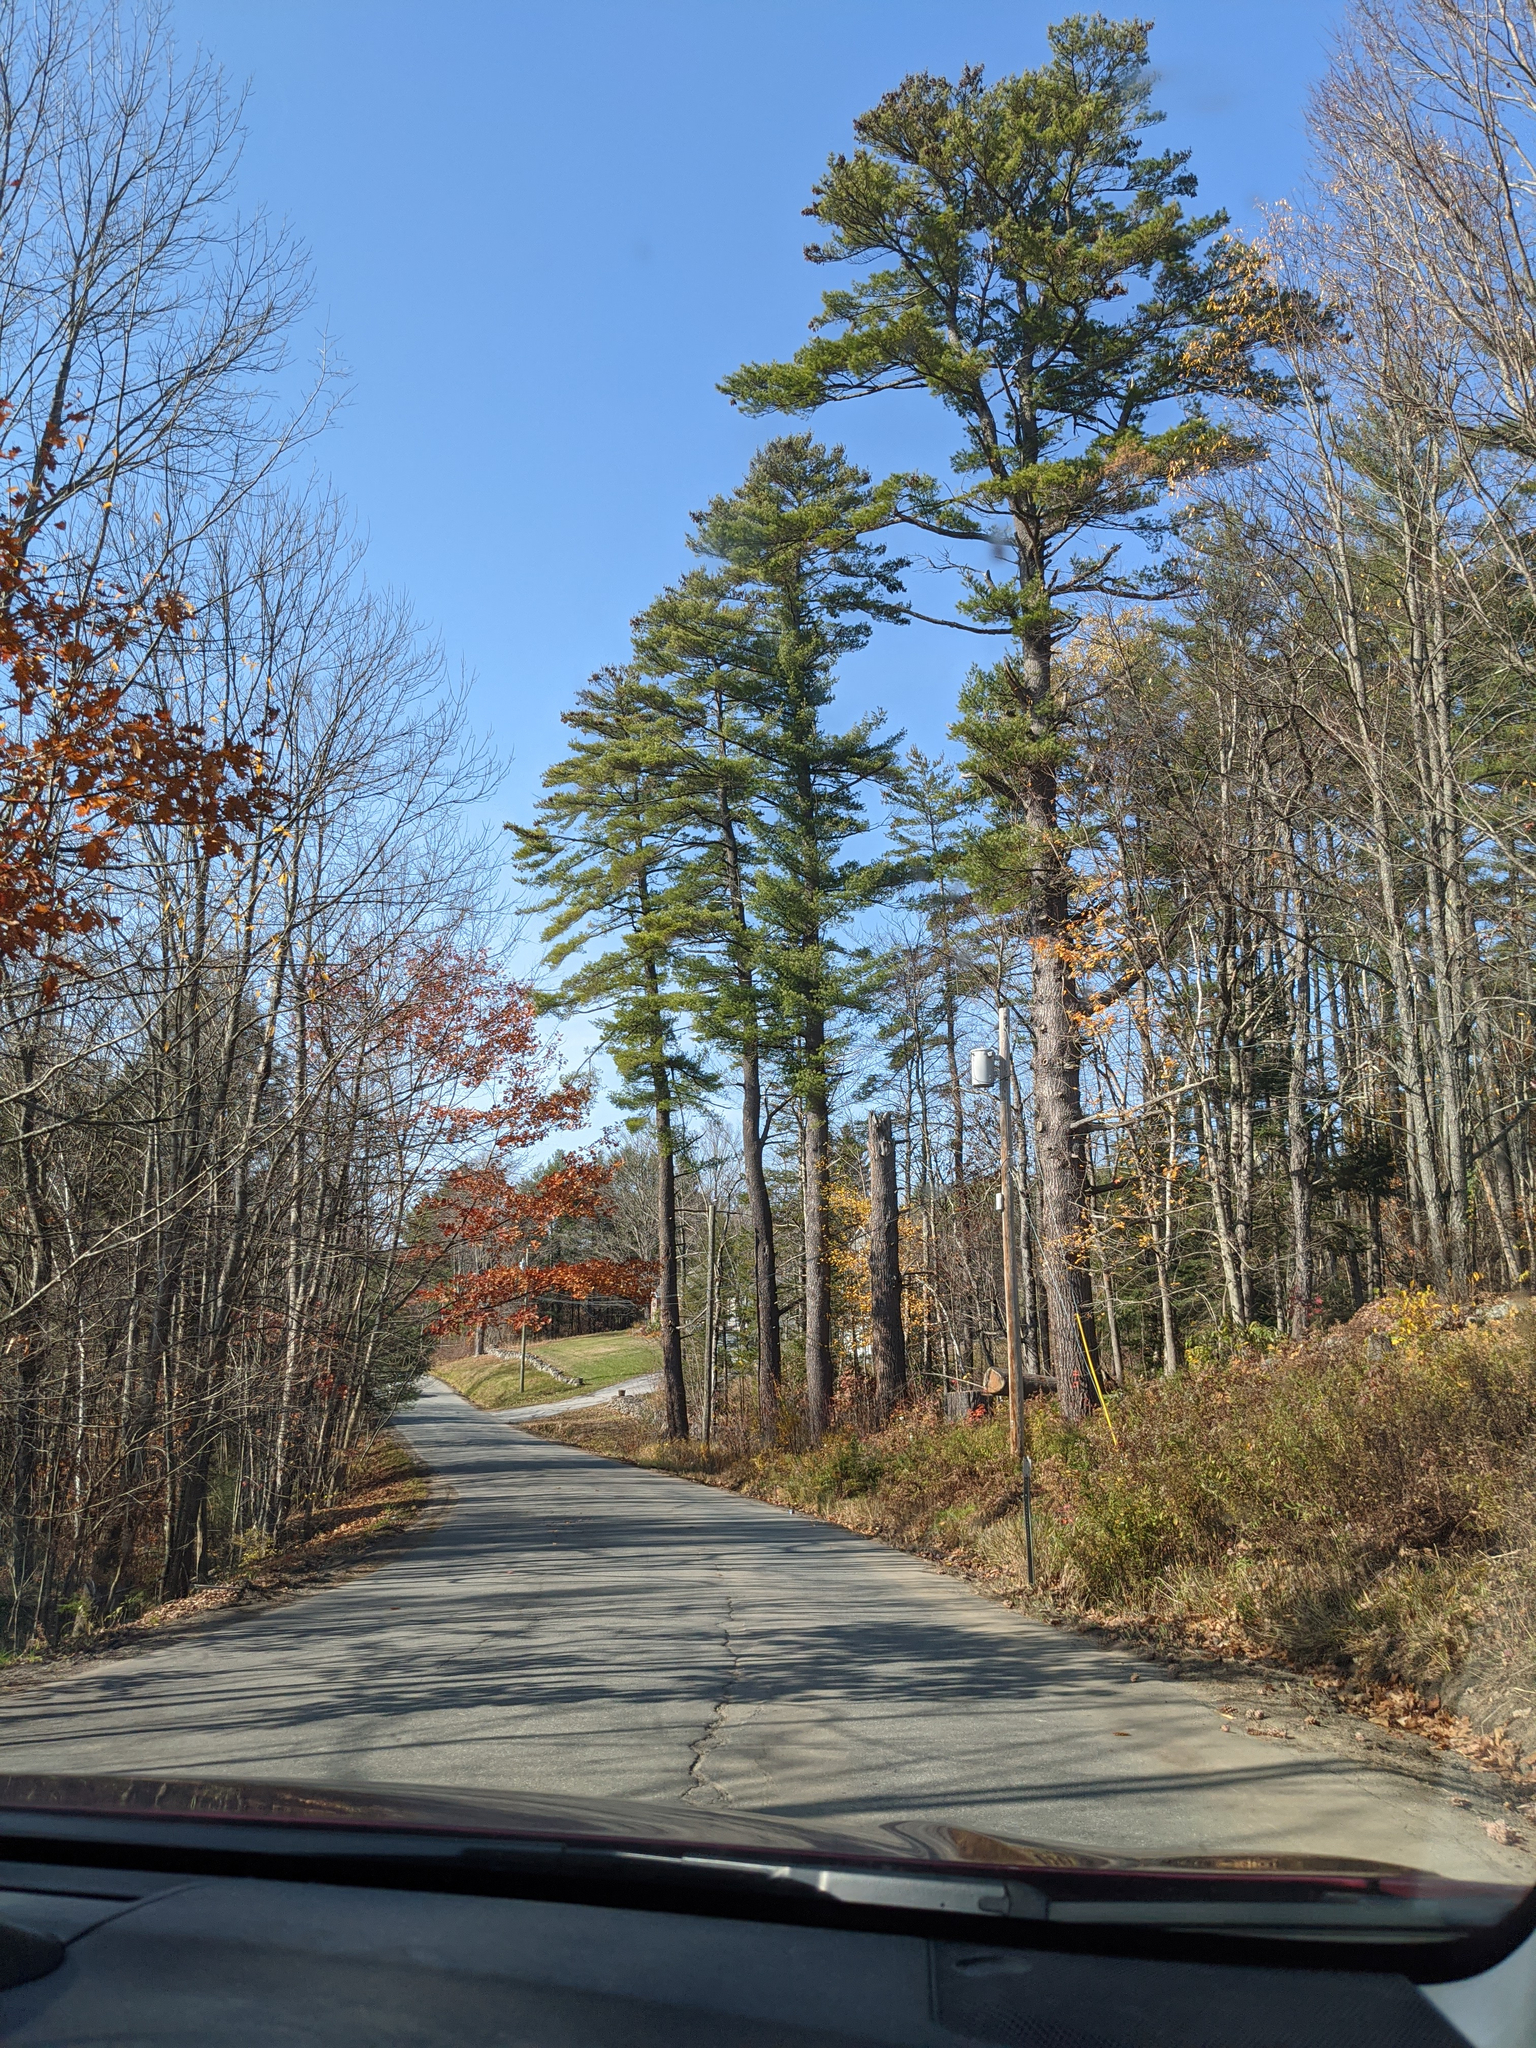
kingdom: Plantae
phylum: Tracheophyta
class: Pinopsida
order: Pinales
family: Pinaceae
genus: Pinus
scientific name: Pinus strobus
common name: Weymouth pine
